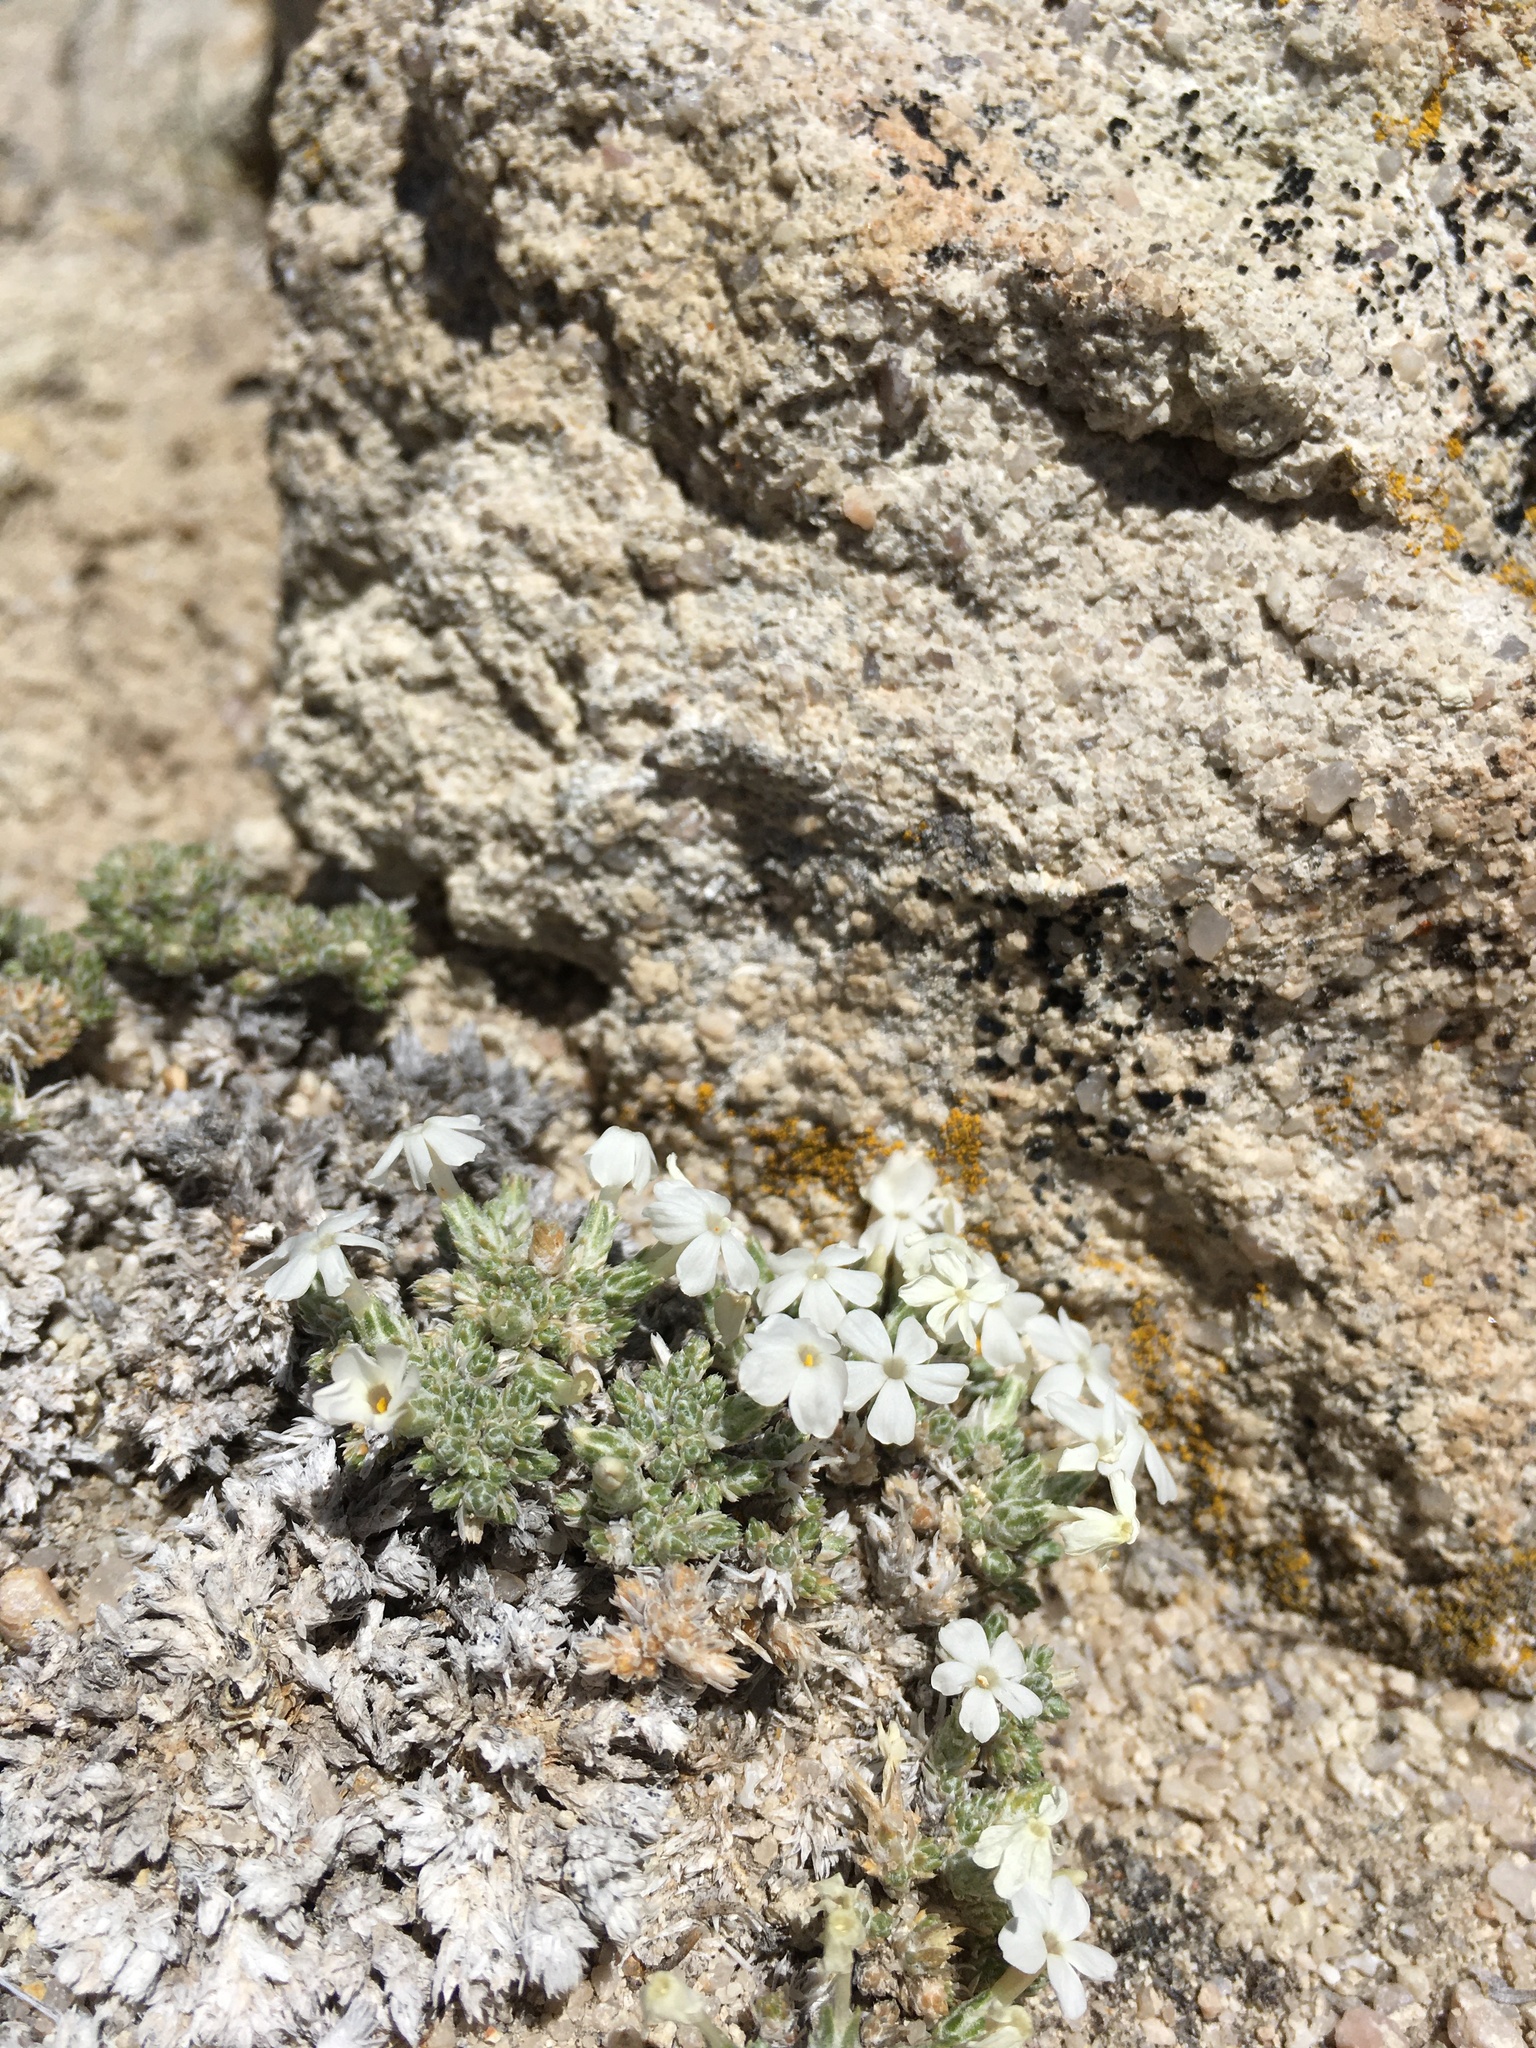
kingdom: Plantae
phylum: Tracheophyta
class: Magnoliopsida
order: Ericales
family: Polemoniaceae
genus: Phlox
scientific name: Phlox hoodii
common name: Moss phlox
